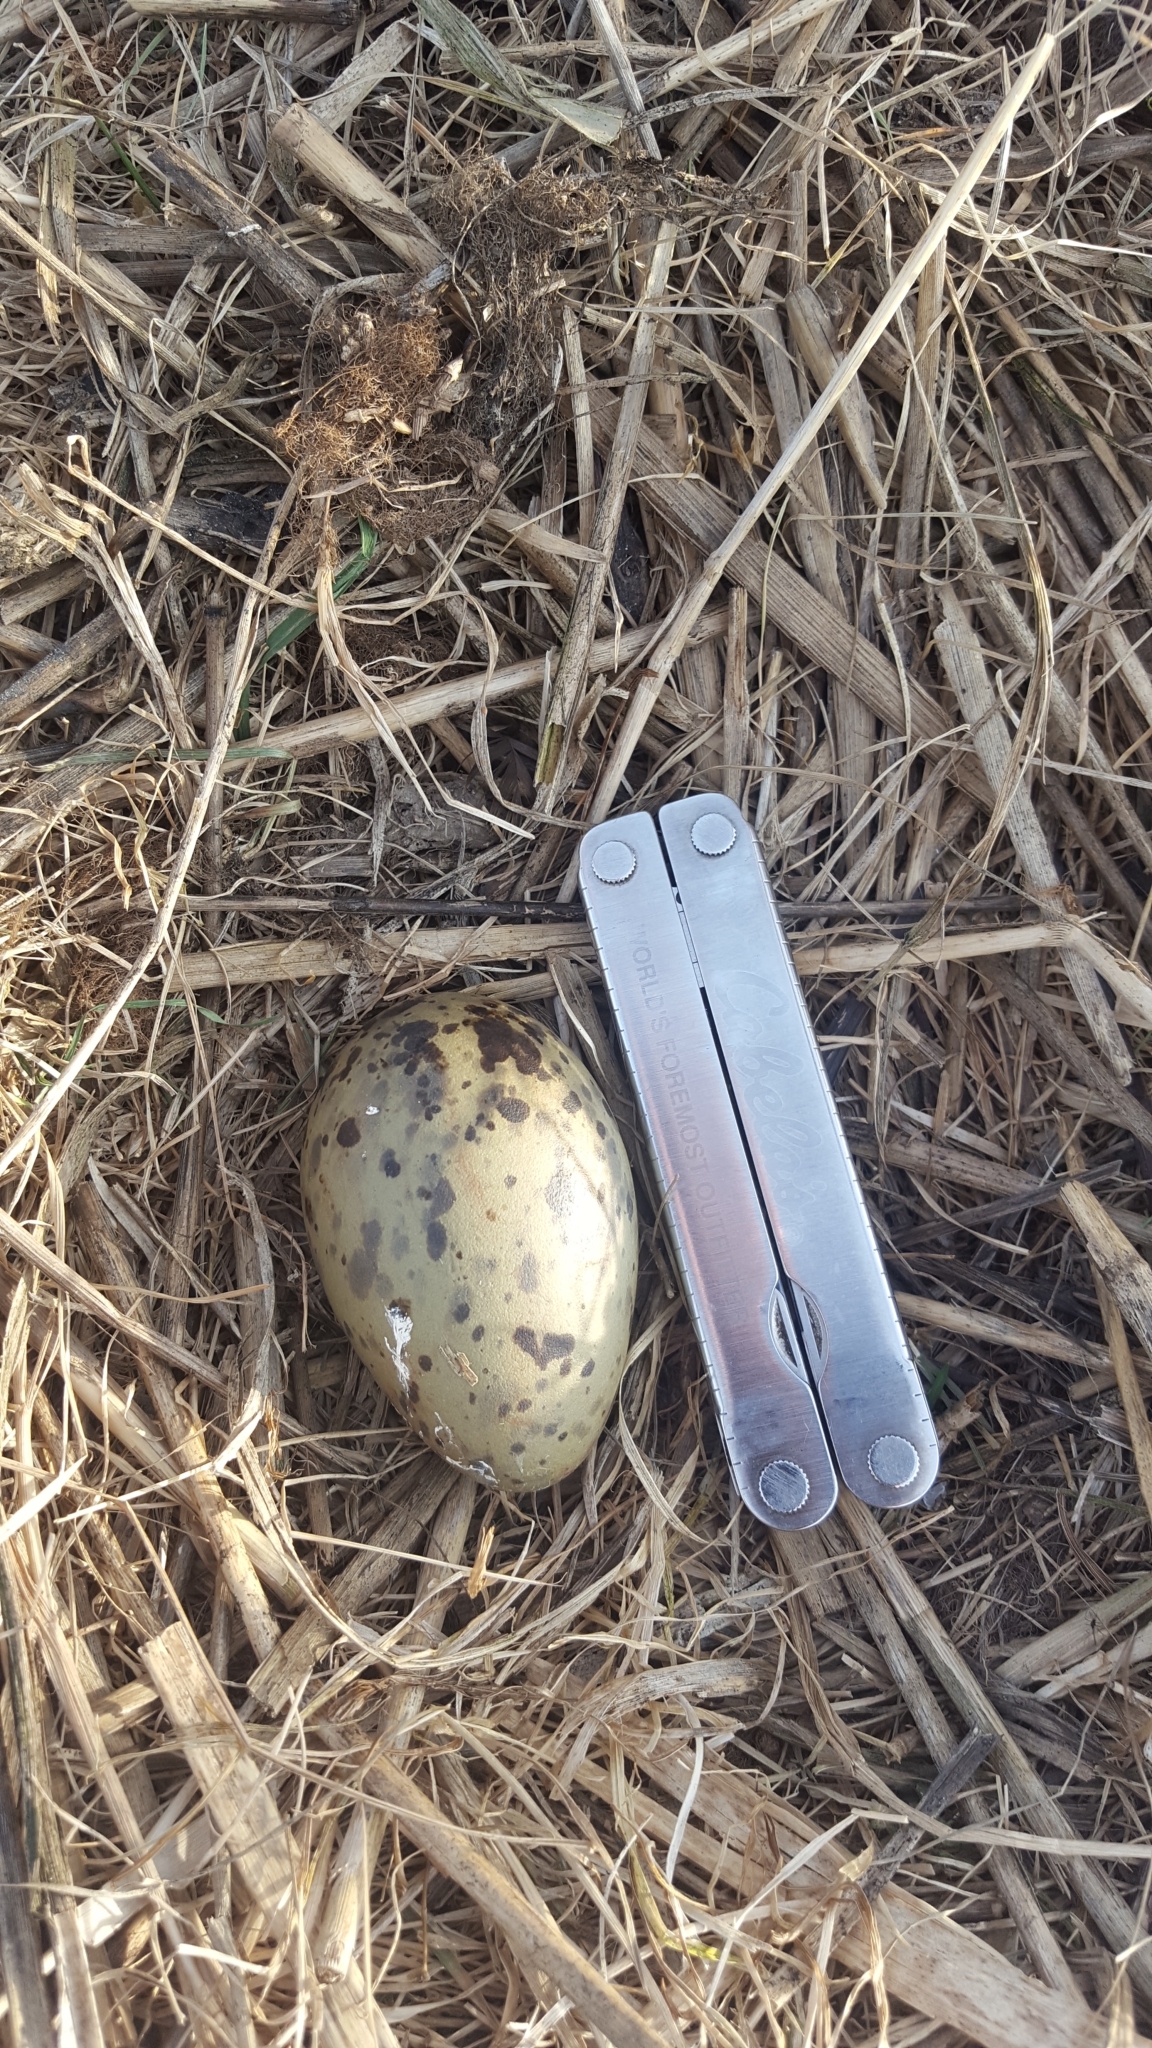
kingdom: Animalia
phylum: Chordata
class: Aves
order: Charadriiformes
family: Laridae
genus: Larus
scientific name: Larus argentatus
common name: Herring gull
